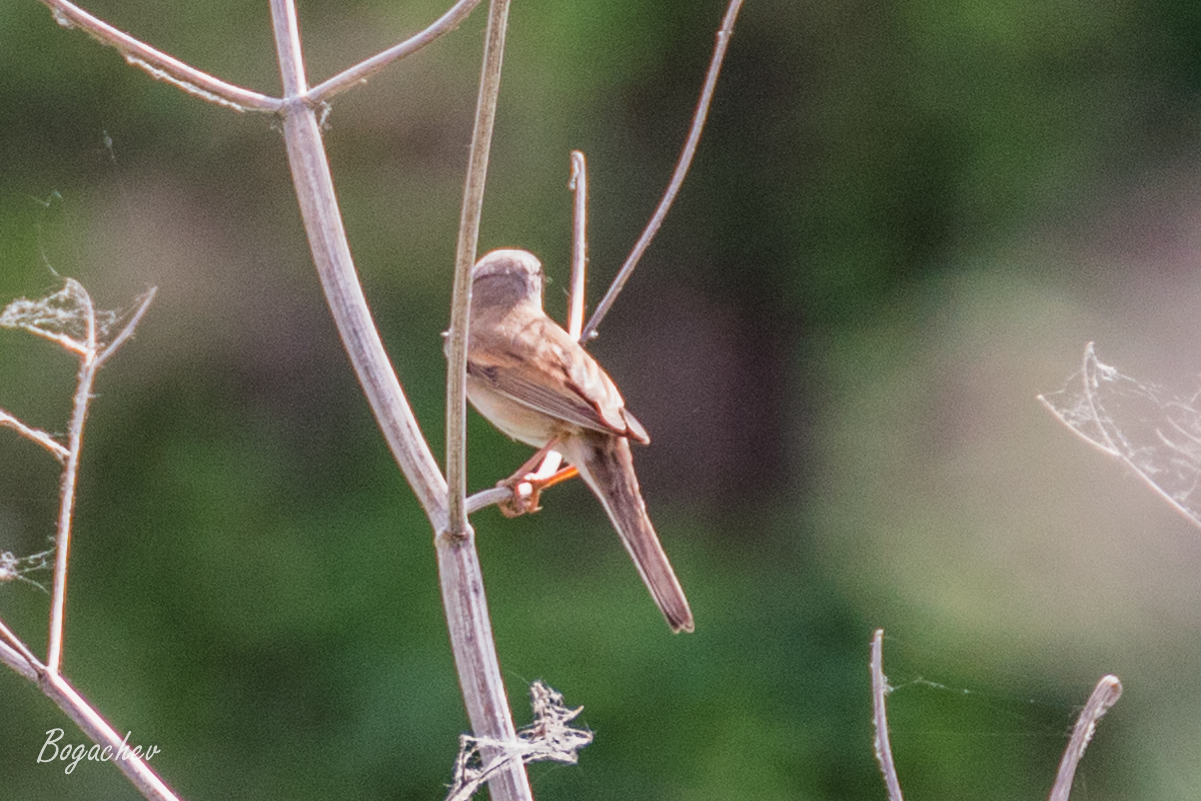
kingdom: Animalia
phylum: Chordata
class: Aves
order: Passeriformes
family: Sylviidae
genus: Sylvia
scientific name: Sylvia communis
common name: Common whitethroat
